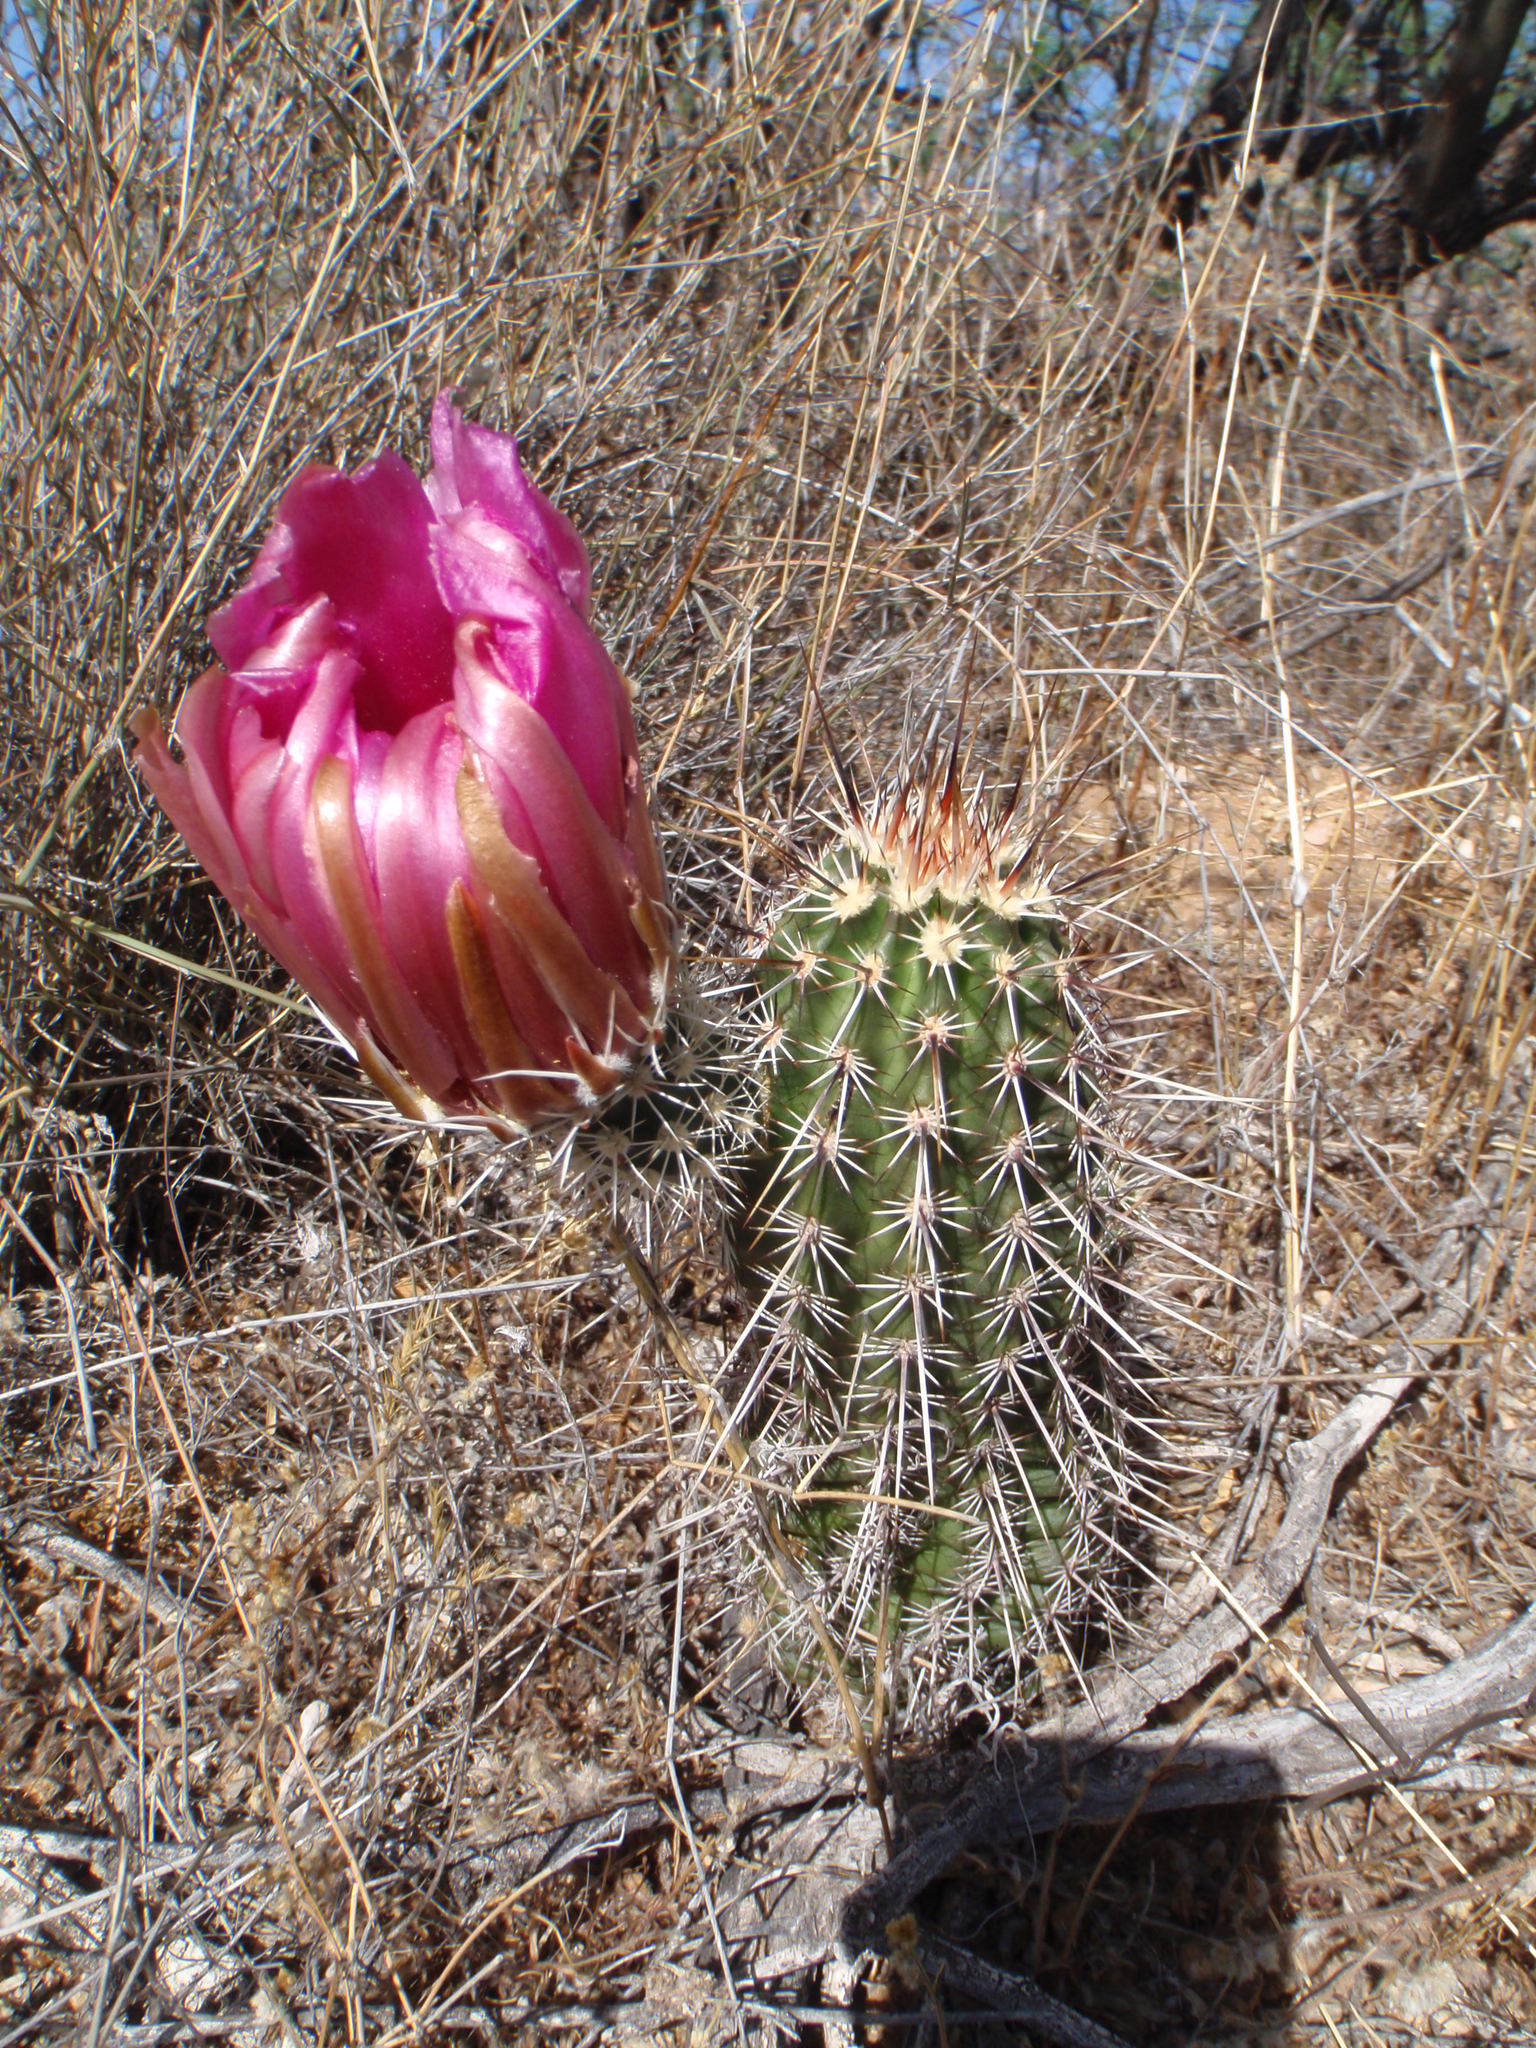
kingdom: Plantae
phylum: Tracheophyta
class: Magnoliopsida
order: Caryophyllales
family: Cactaceae
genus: Echinocereus
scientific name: Echinocereus fasciculatus
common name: Bundle hedgehog
